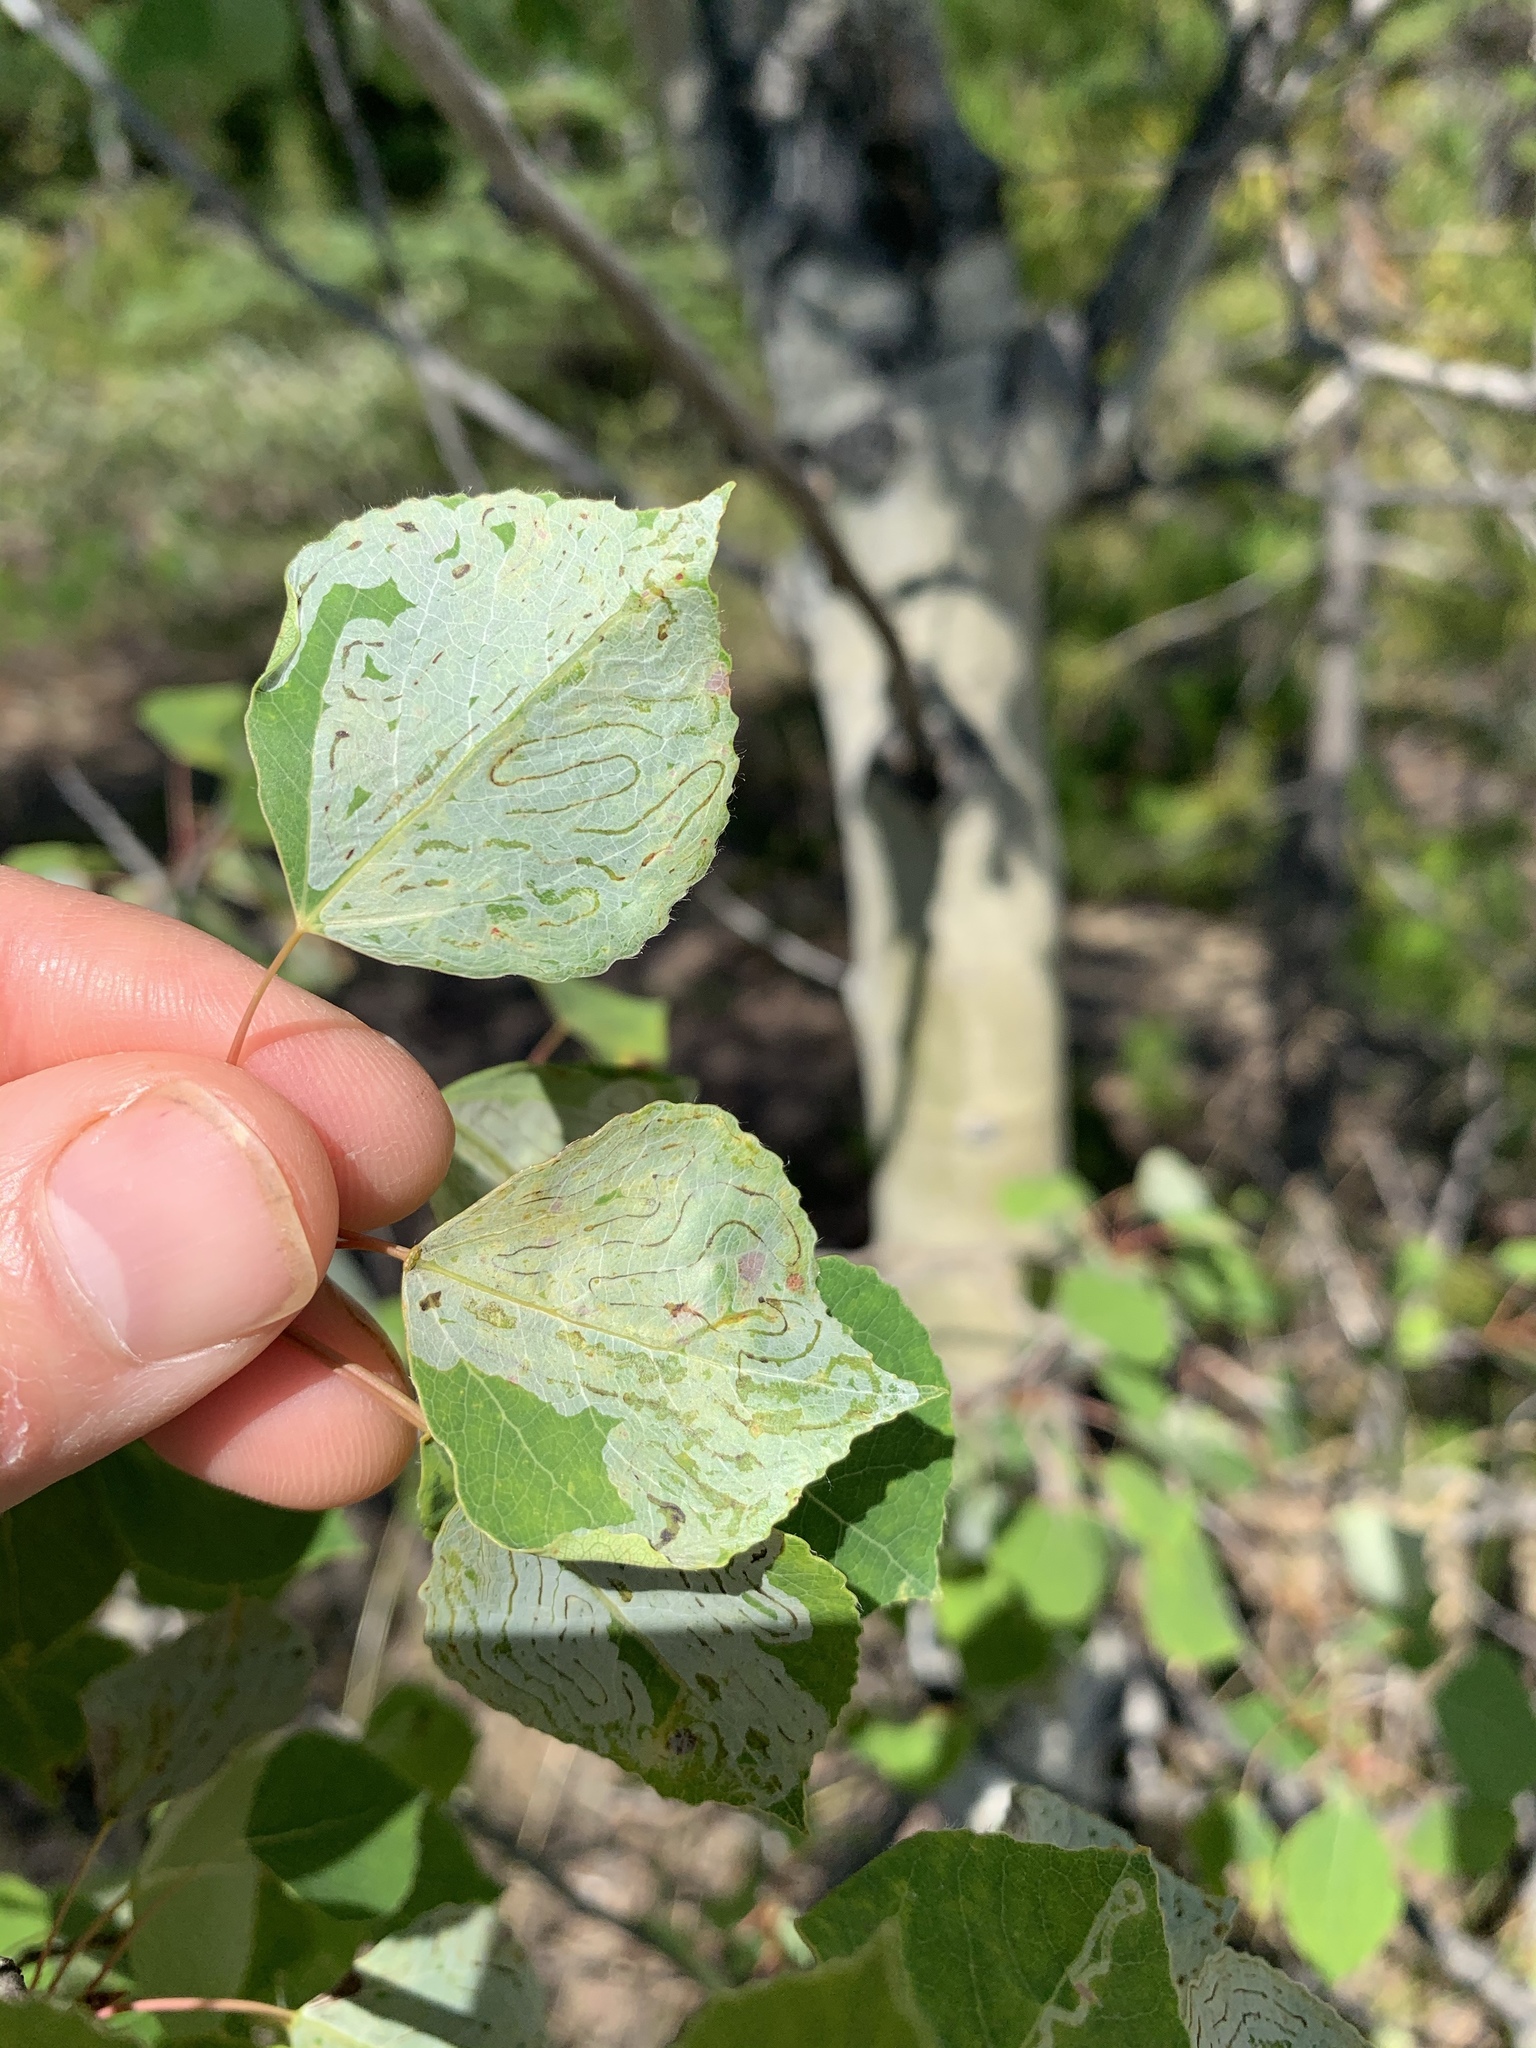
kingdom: Animalia
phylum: Arthropoda
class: Insecta
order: Lepidoptera
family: Gracillariidae
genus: Phyllocnistis
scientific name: Phyllocnistis populiella
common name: Aspen serpentine leafminer moth
